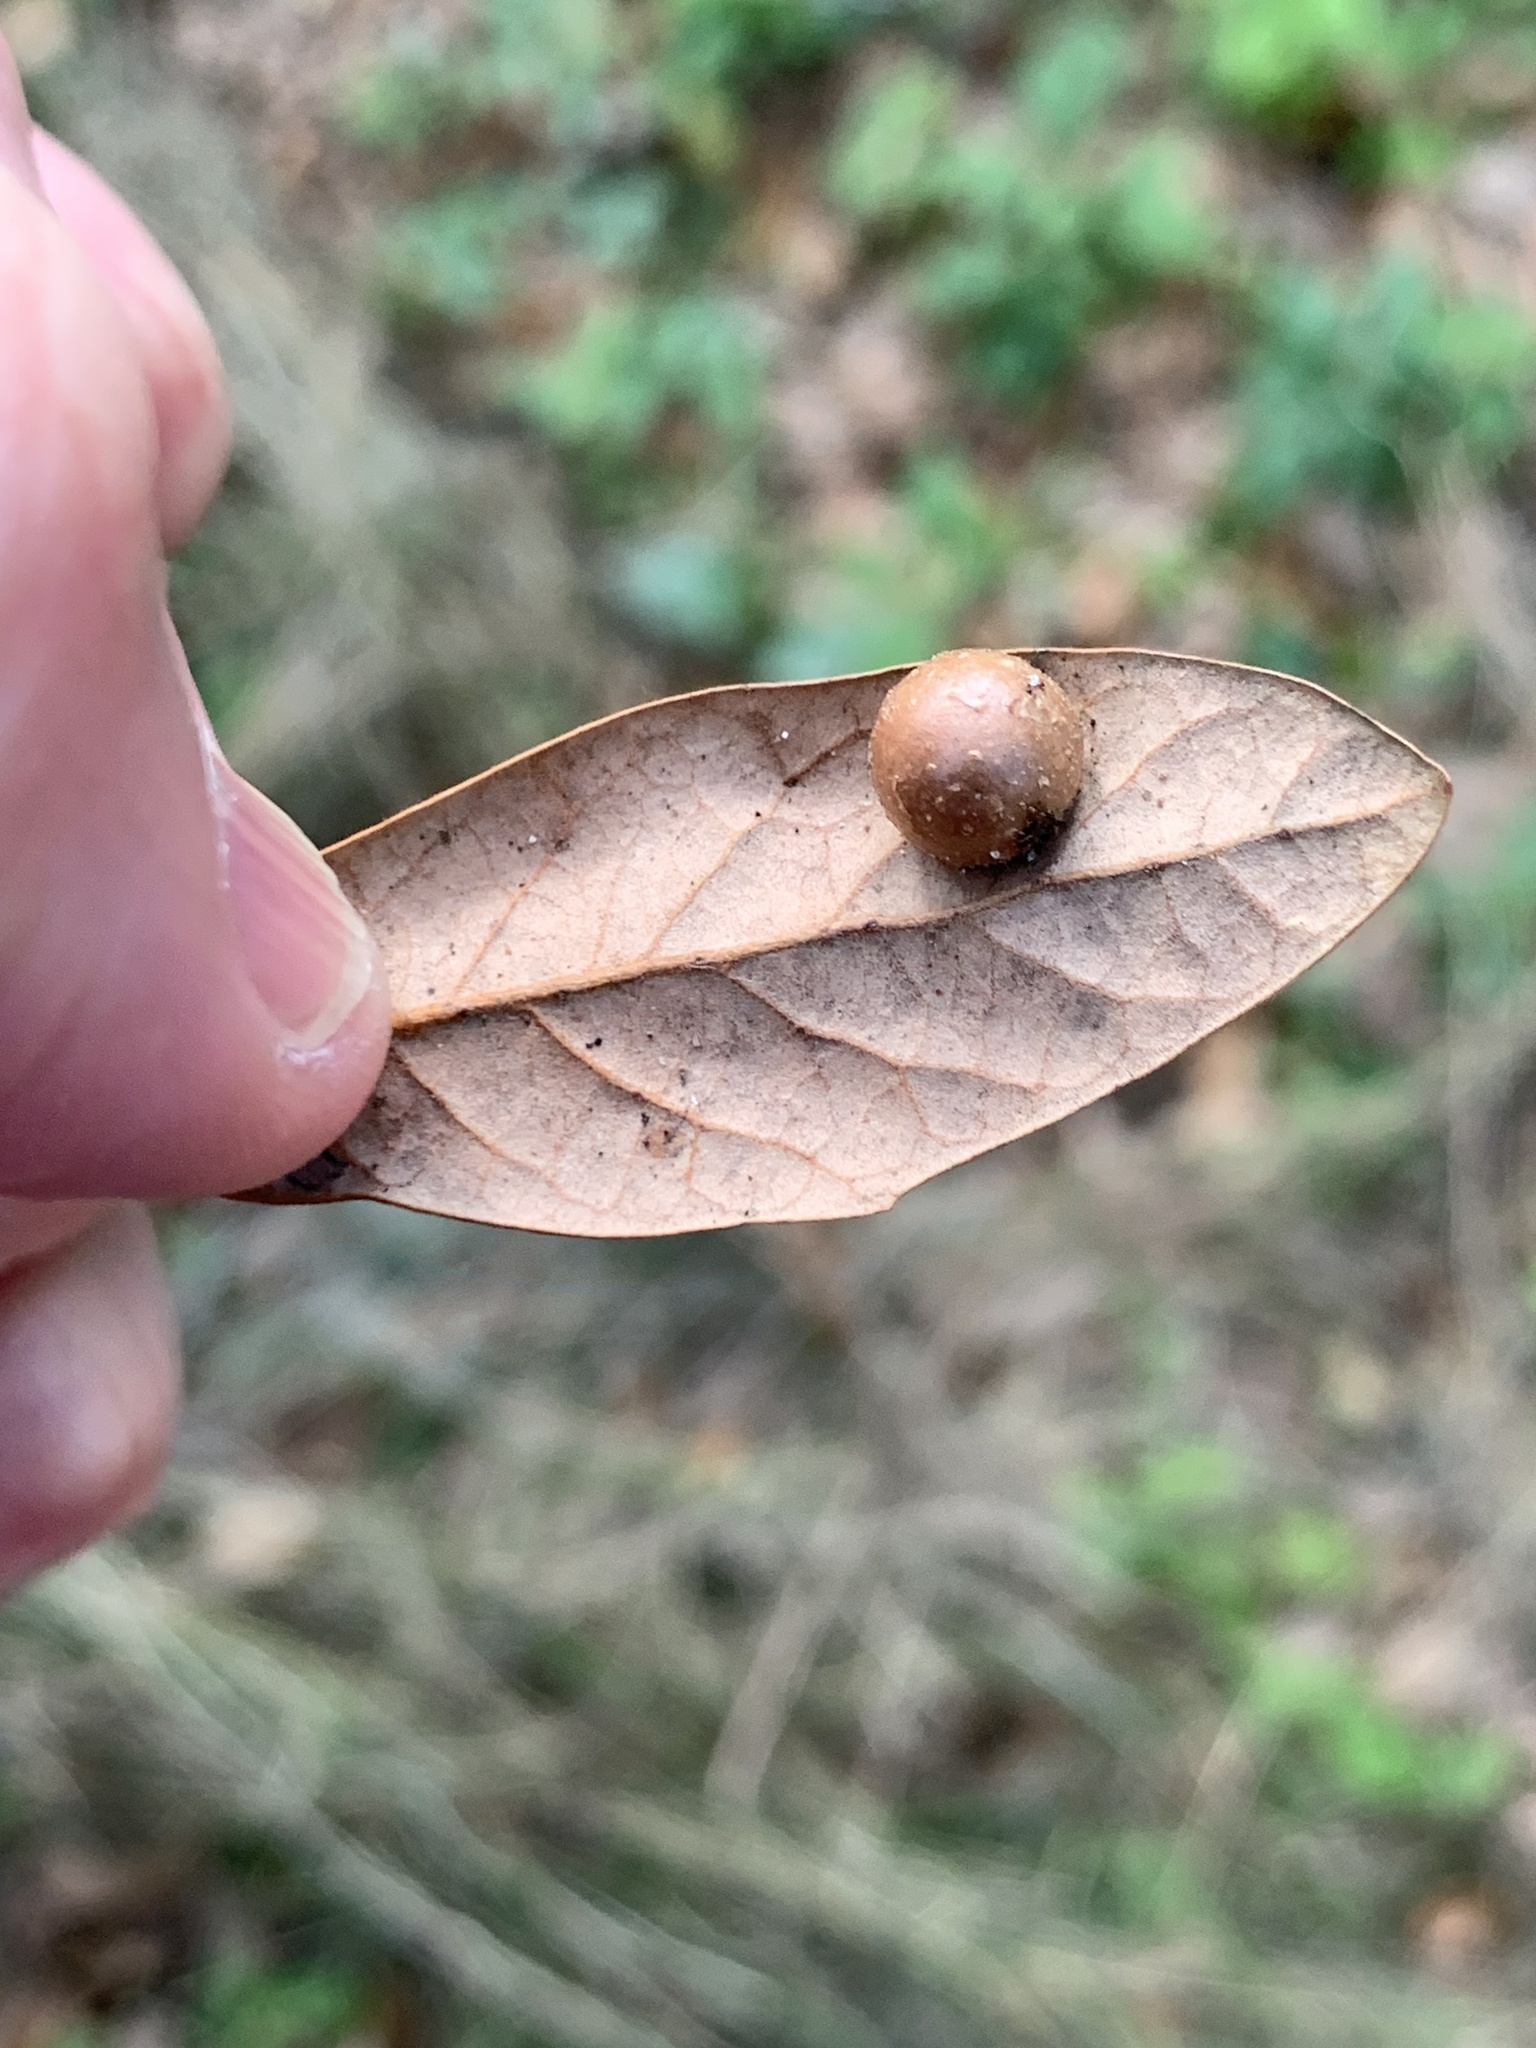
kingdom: Animalia
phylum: Arthropoda
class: Insecta
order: Hymenoptera
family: Cynipidae
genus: Belonocnema
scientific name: Belonocnema treatae
